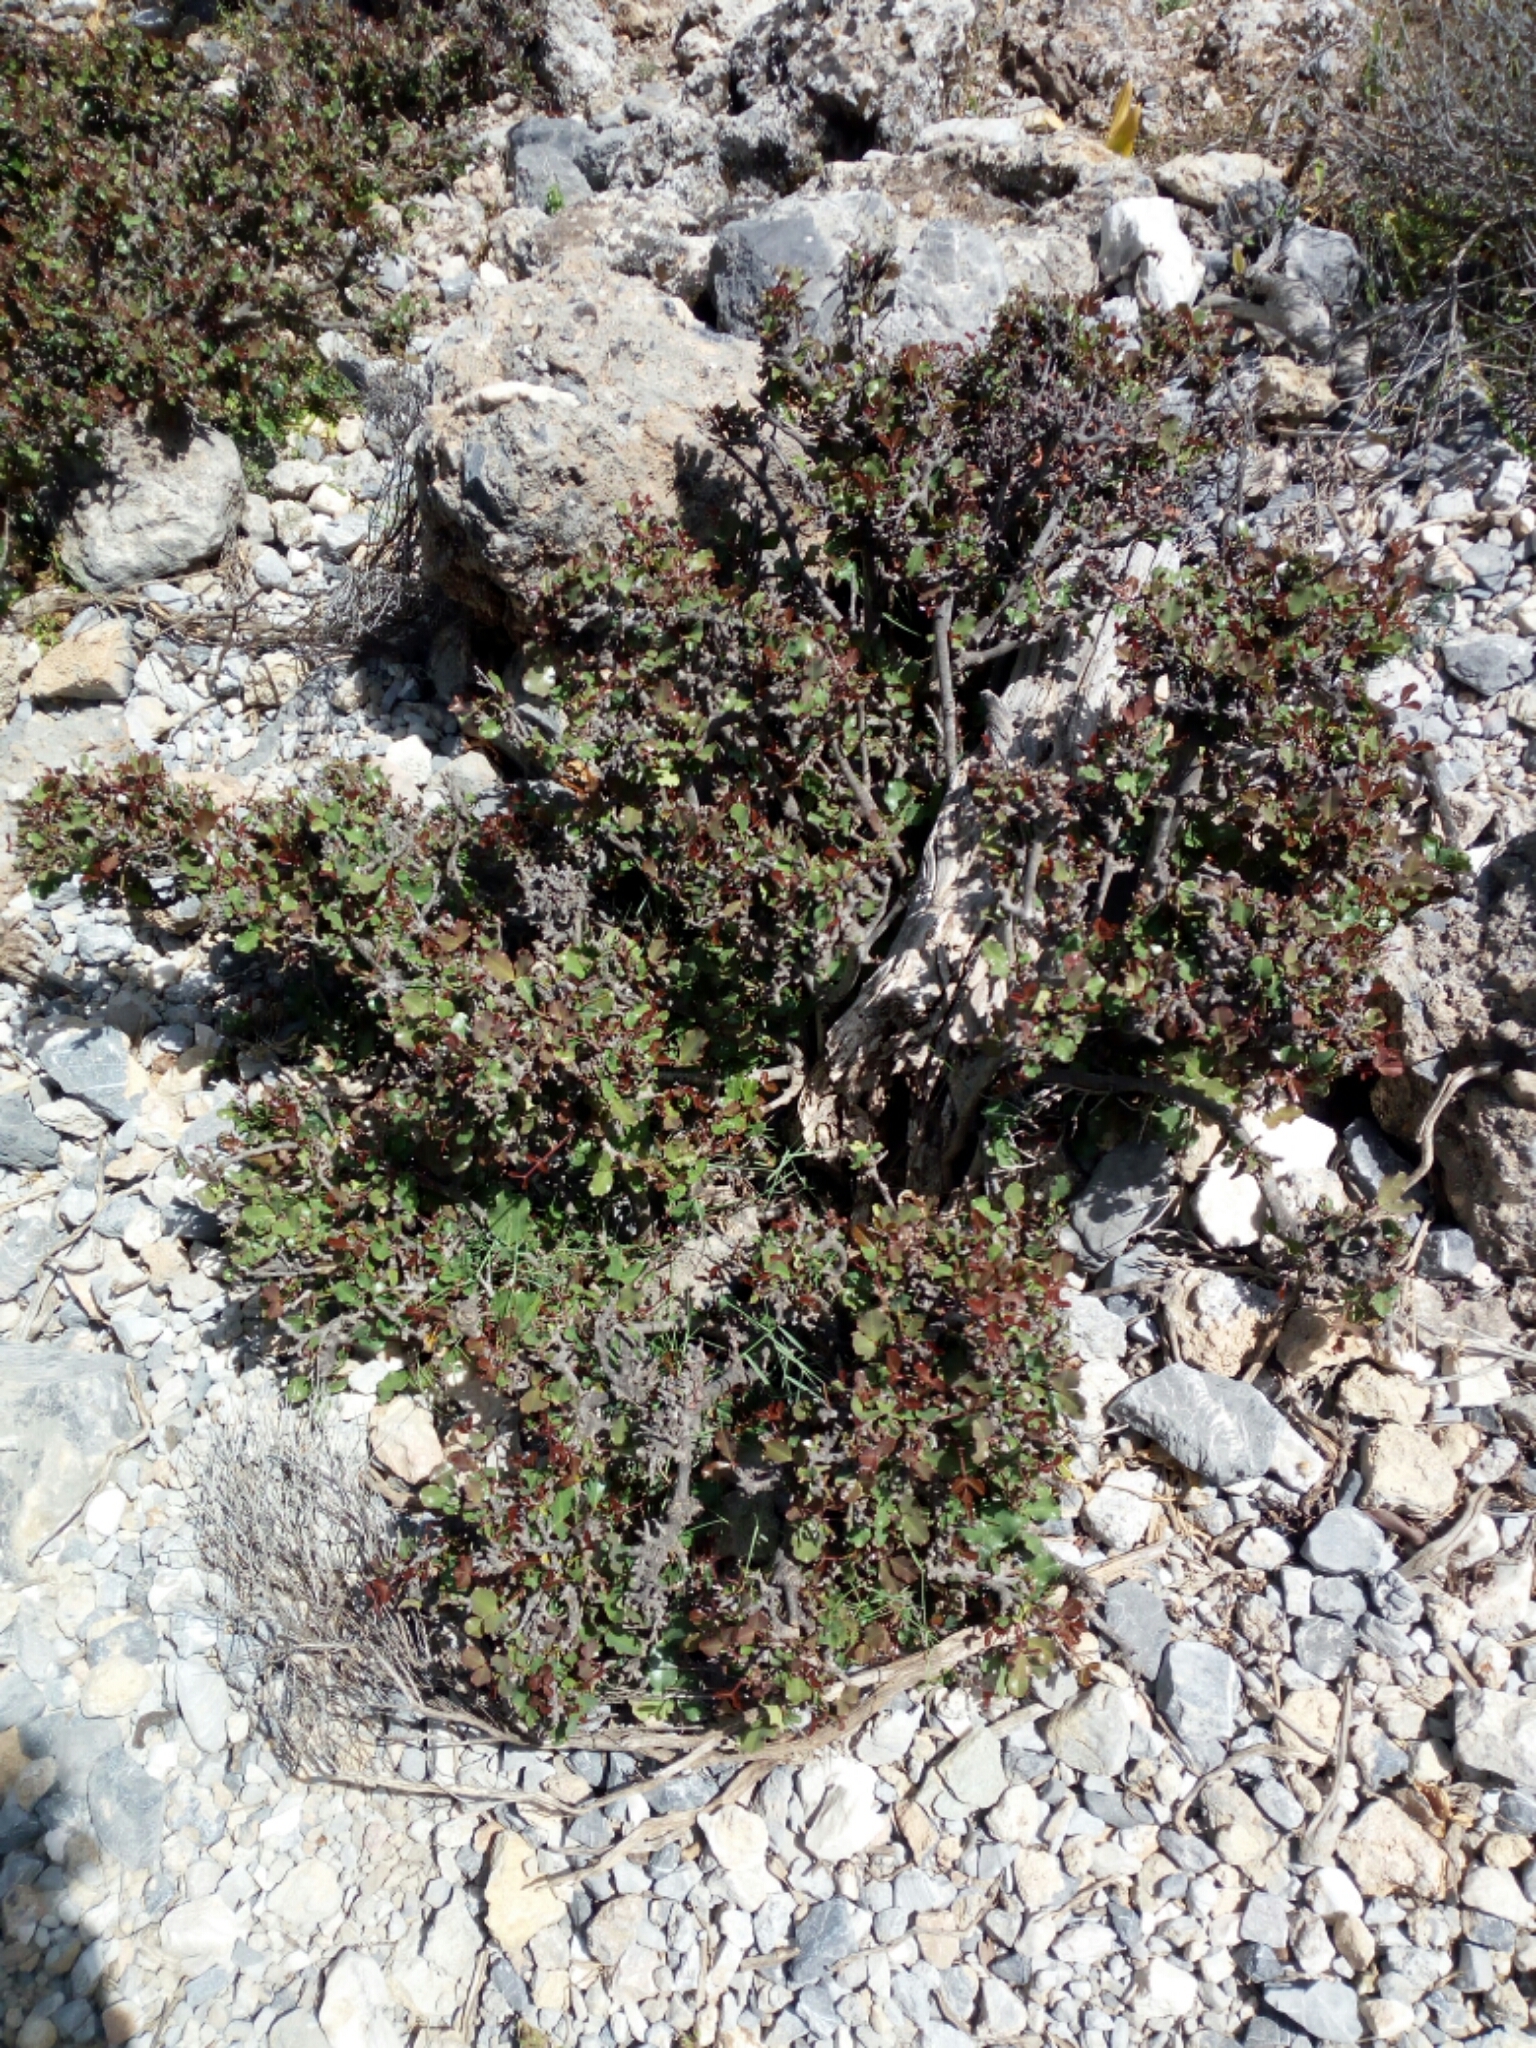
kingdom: Plantae
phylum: Tracheophyta
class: Magnoliopsida
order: Fabales
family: Fabaceae
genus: Ceratonia
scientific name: Ceratonia siliqua
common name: Carob
